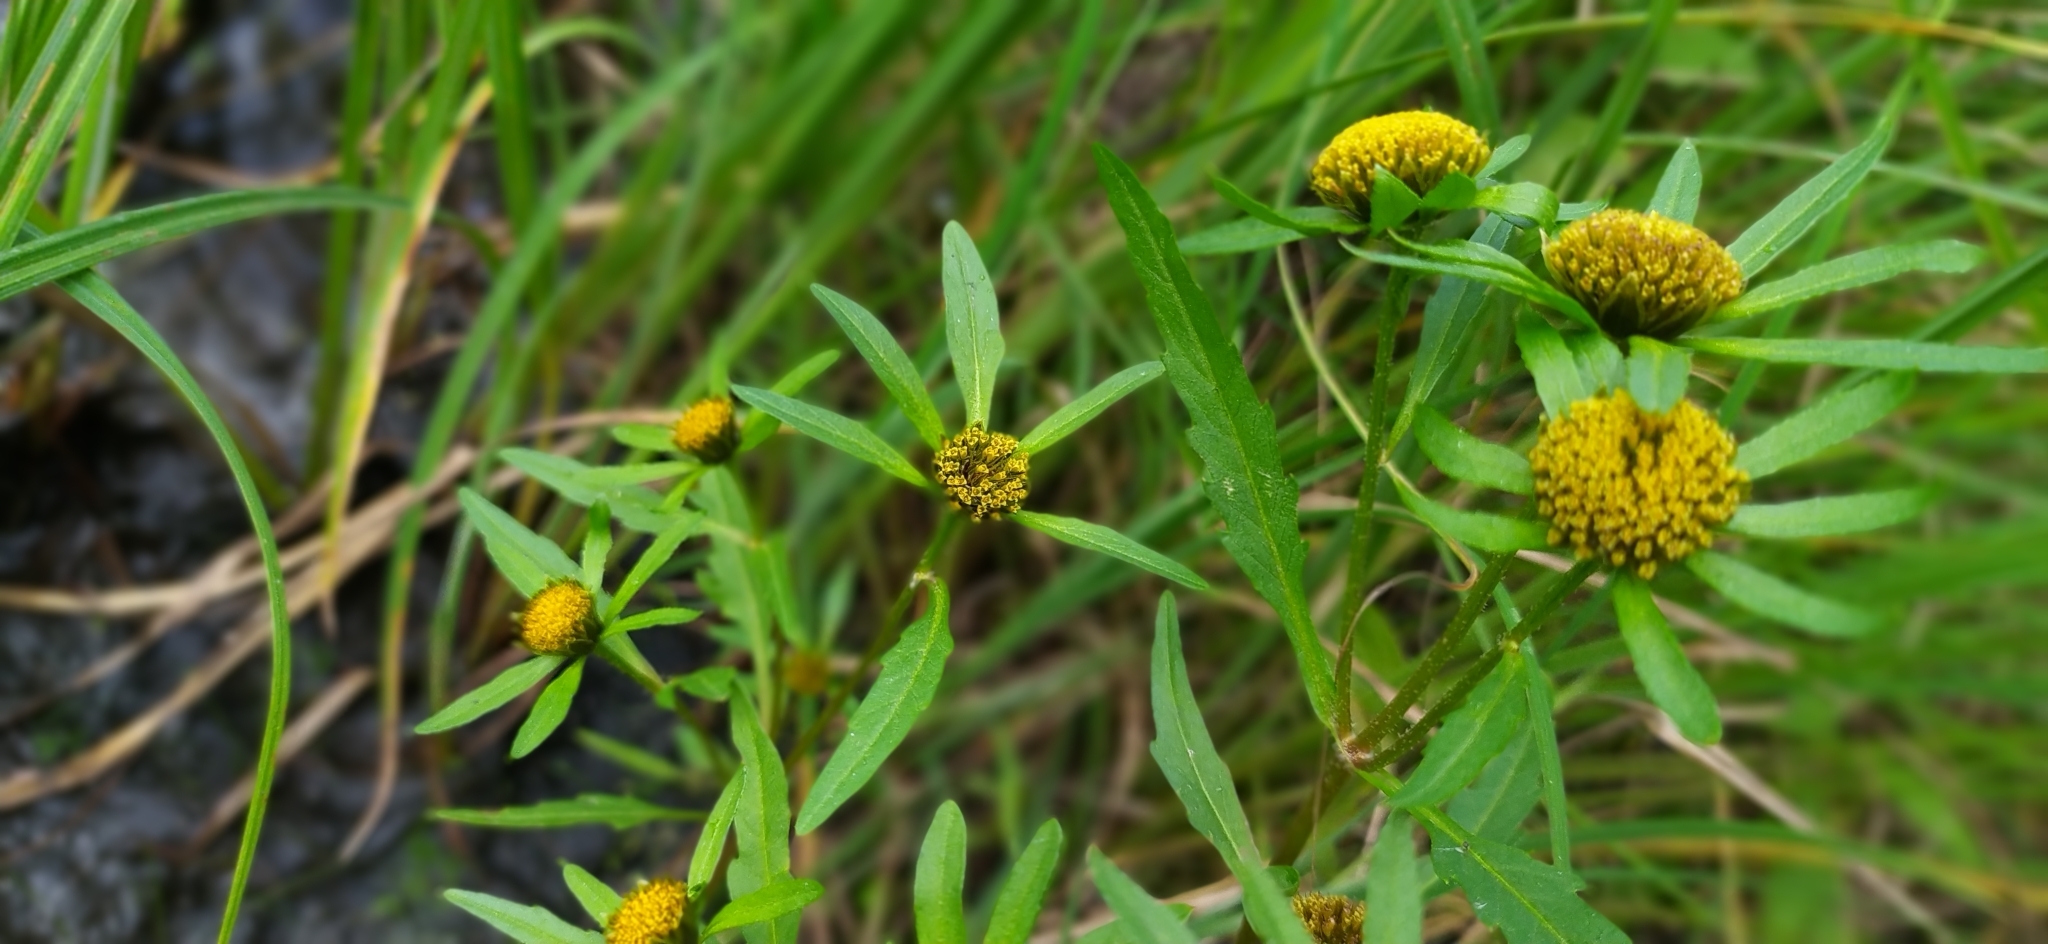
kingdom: Plantae
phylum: Tracheophyta
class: Magnoliopsida
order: Asterales
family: Asteraceae
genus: Bidens
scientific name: Bidens radiata
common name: Radiating bur-marigold
